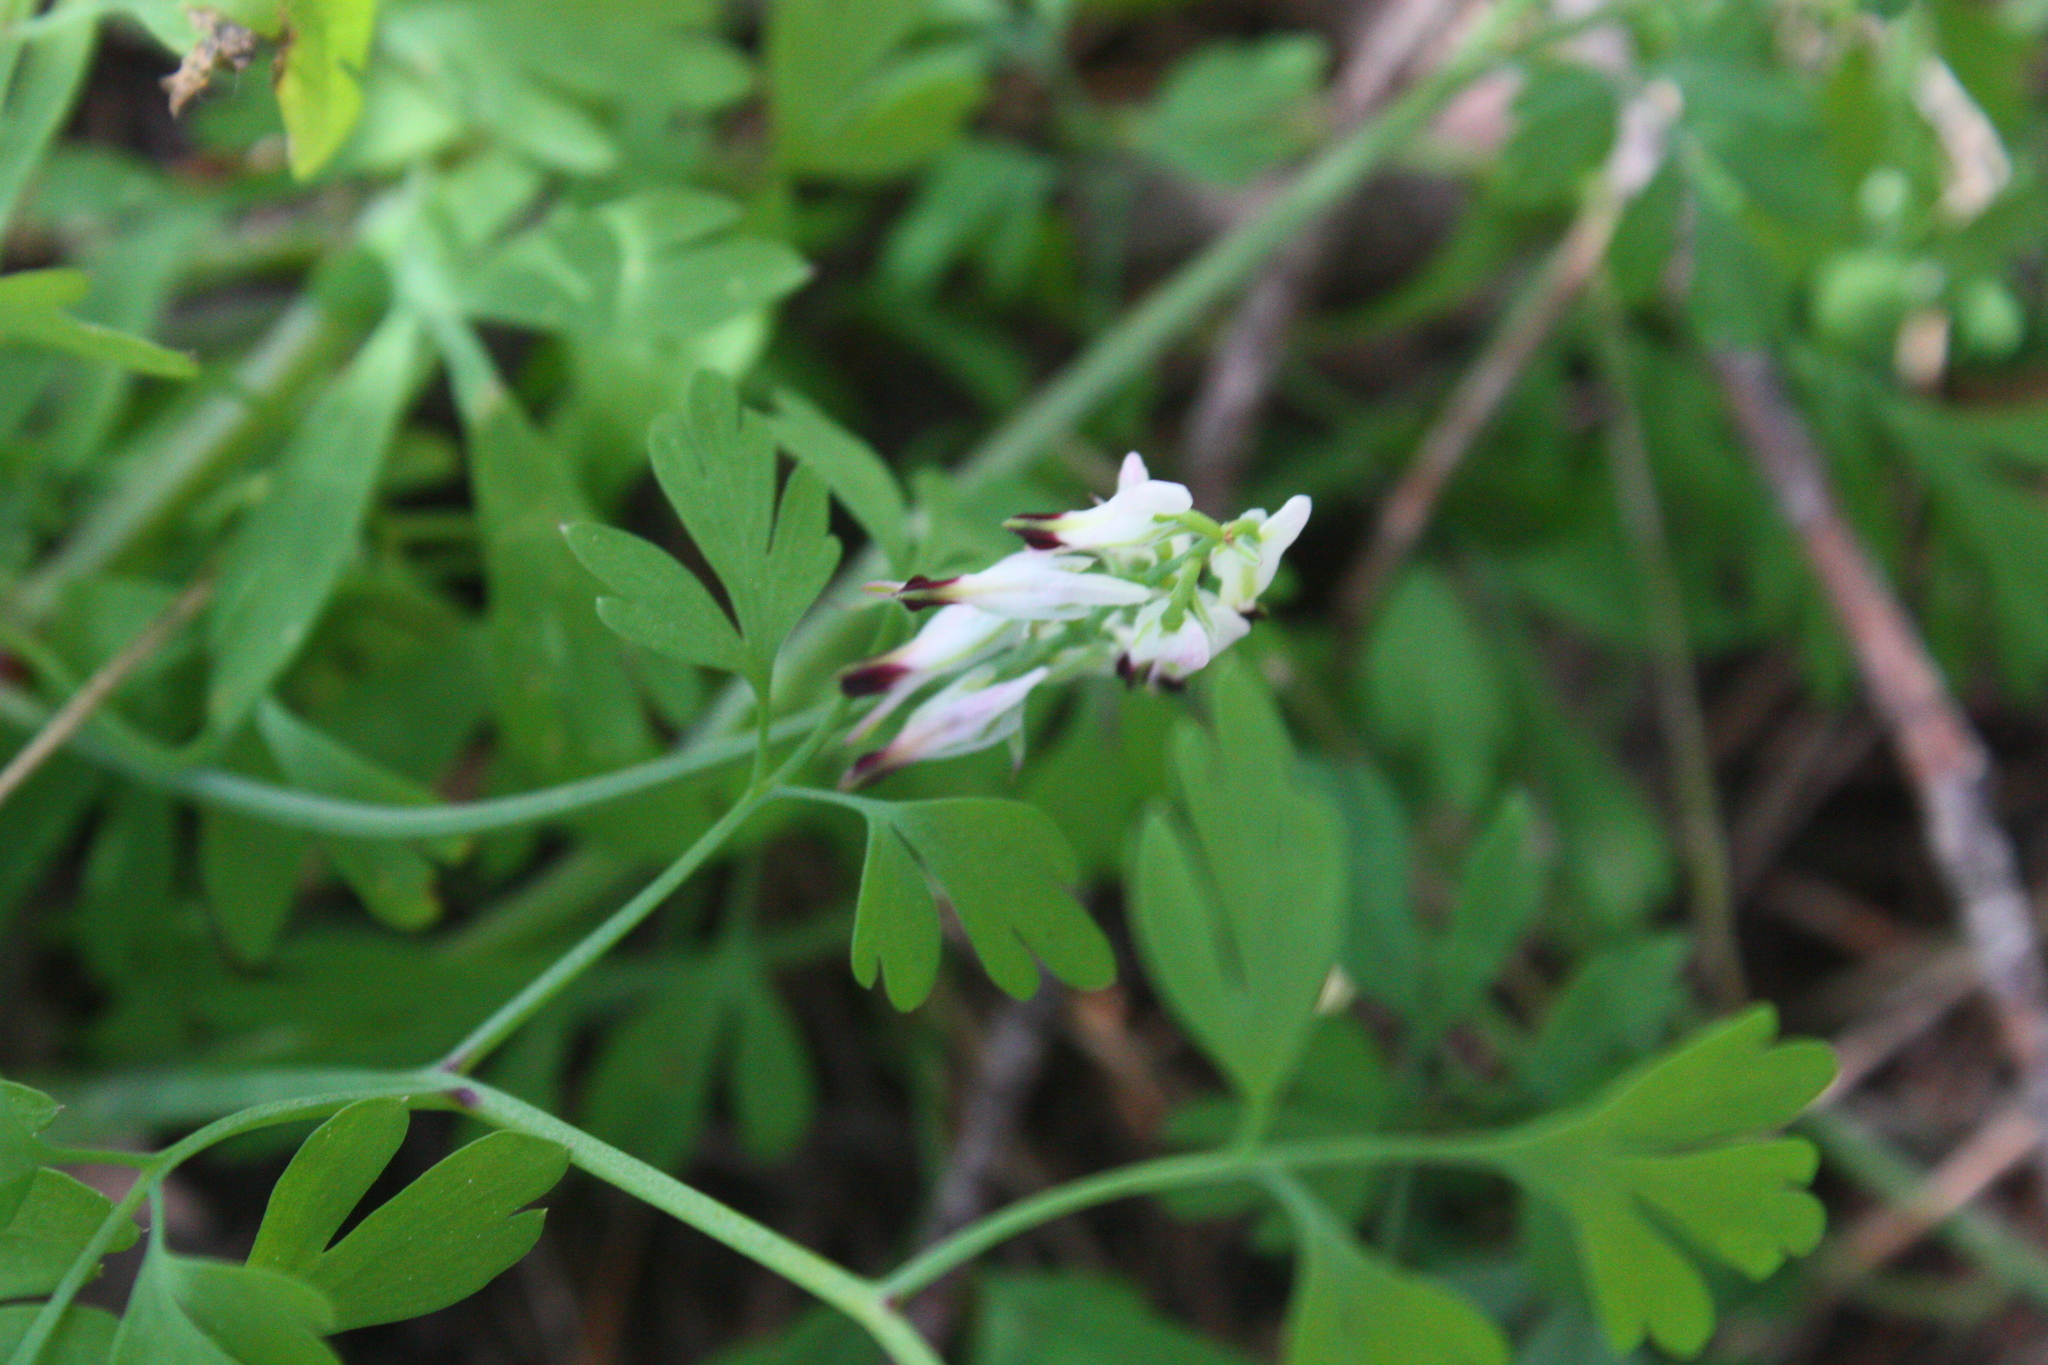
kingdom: Plantae
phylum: Tracheophyta
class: Magnoliopsida
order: Ranunculales
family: Papaveraceae
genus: Fumaria
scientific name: Fumaria capreolata
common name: White ramping-fumitory
